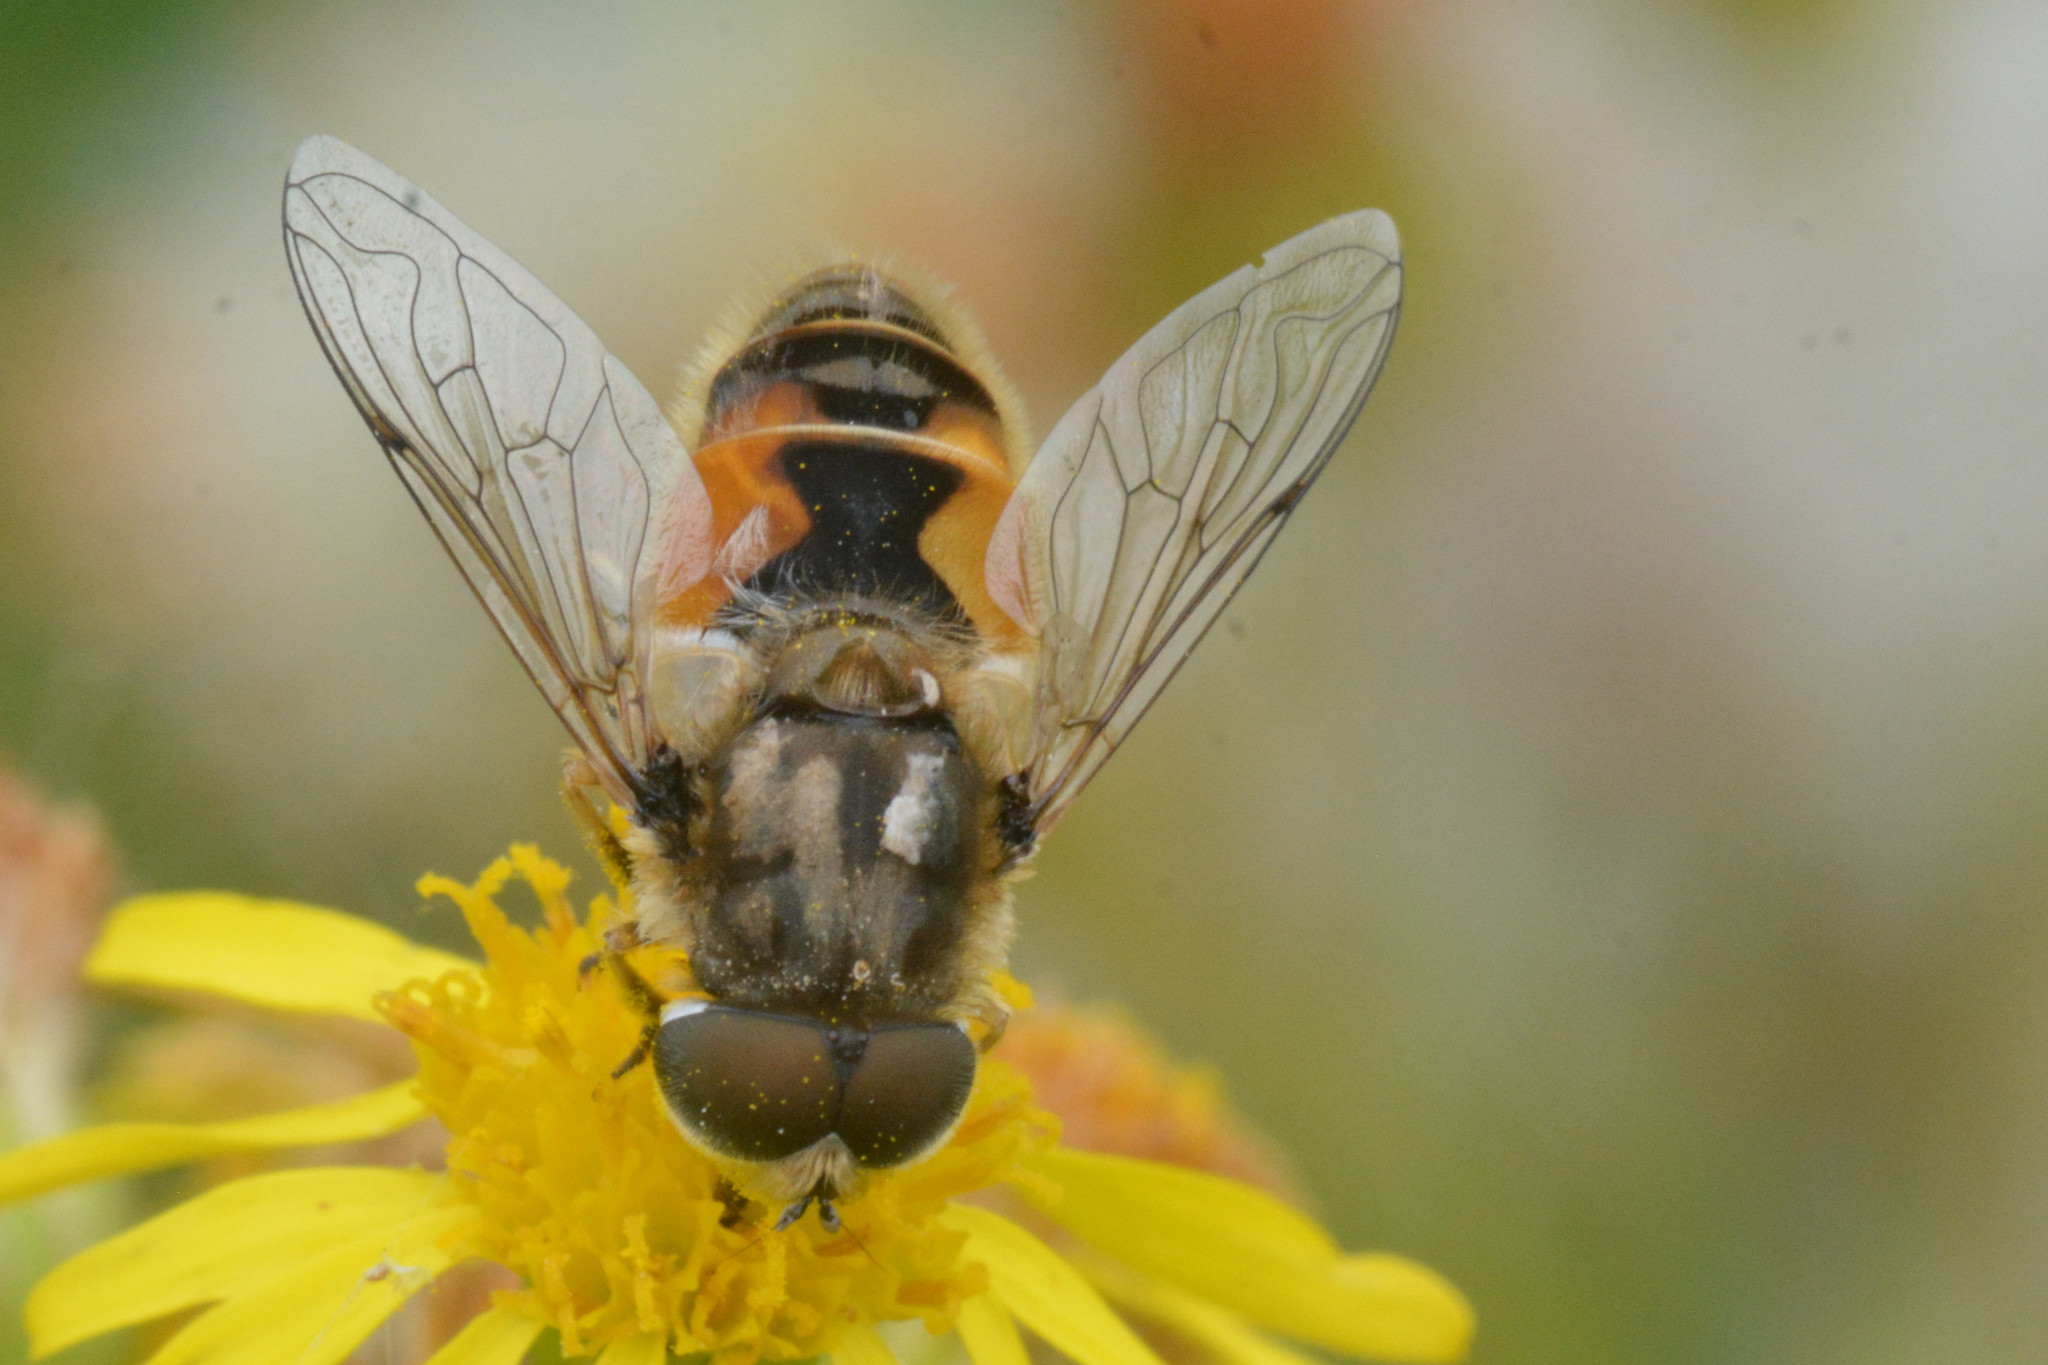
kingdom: Animalia
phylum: Arthropoda
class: Insecta
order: Diptera
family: Syrphidae
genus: Eristalis
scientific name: Eristalis arbustorum
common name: Hover fly
